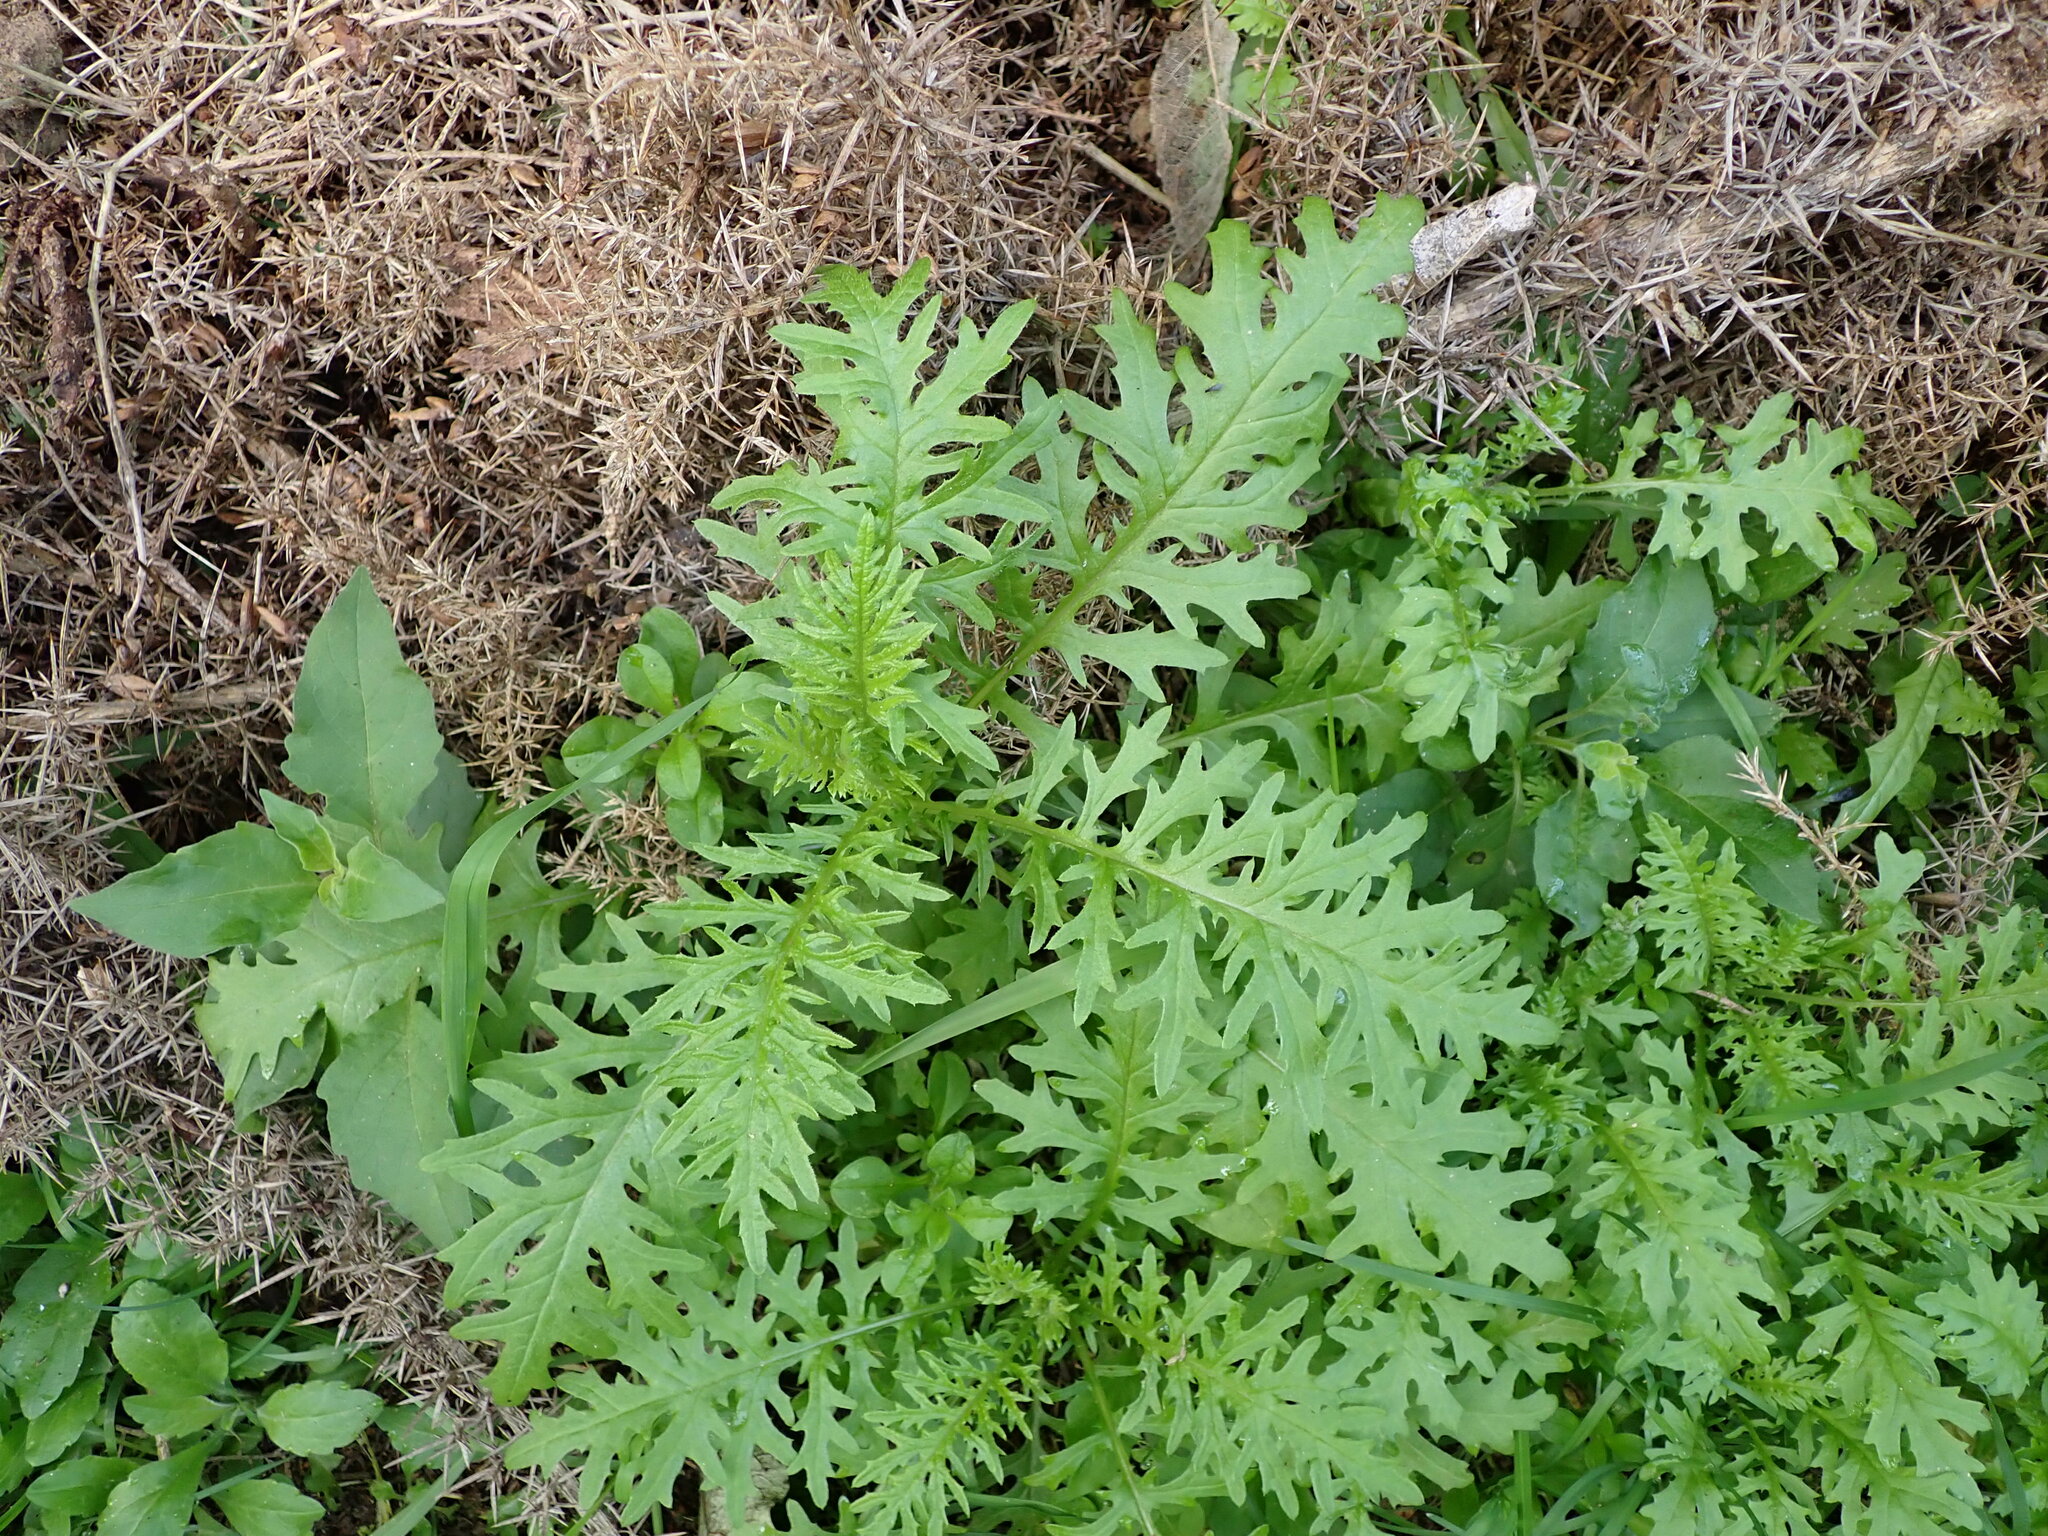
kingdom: Plantae
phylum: Tracheophyta
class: Magnoliopsida
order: Asterales
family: Asteraceae
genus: Senecio
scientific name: Senecio bipinnatisectus
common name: Australian fireweed
